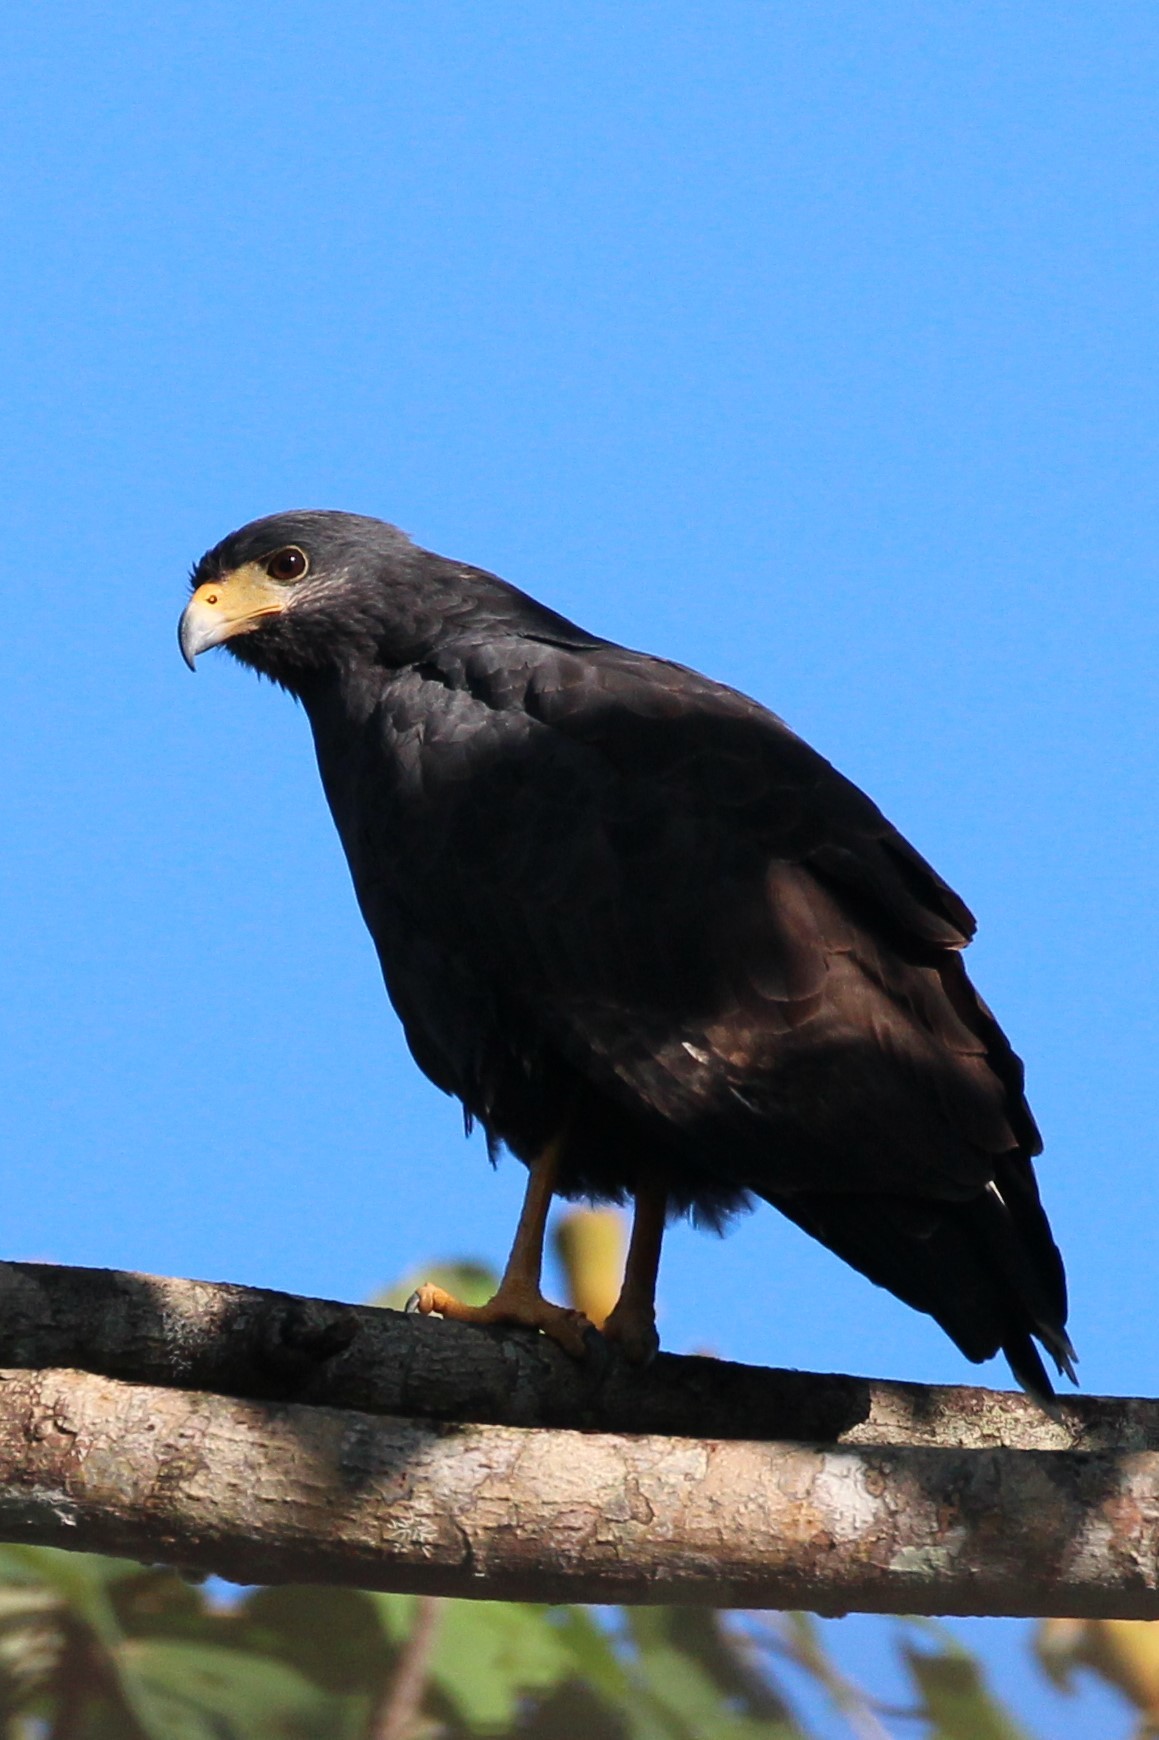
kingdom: Animalia
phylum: Chordata
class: Aves
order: Accipitriformes
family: Accipitridae
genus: Buteogallus
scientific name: Buteogallus anthracinus
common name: Common black hawk
